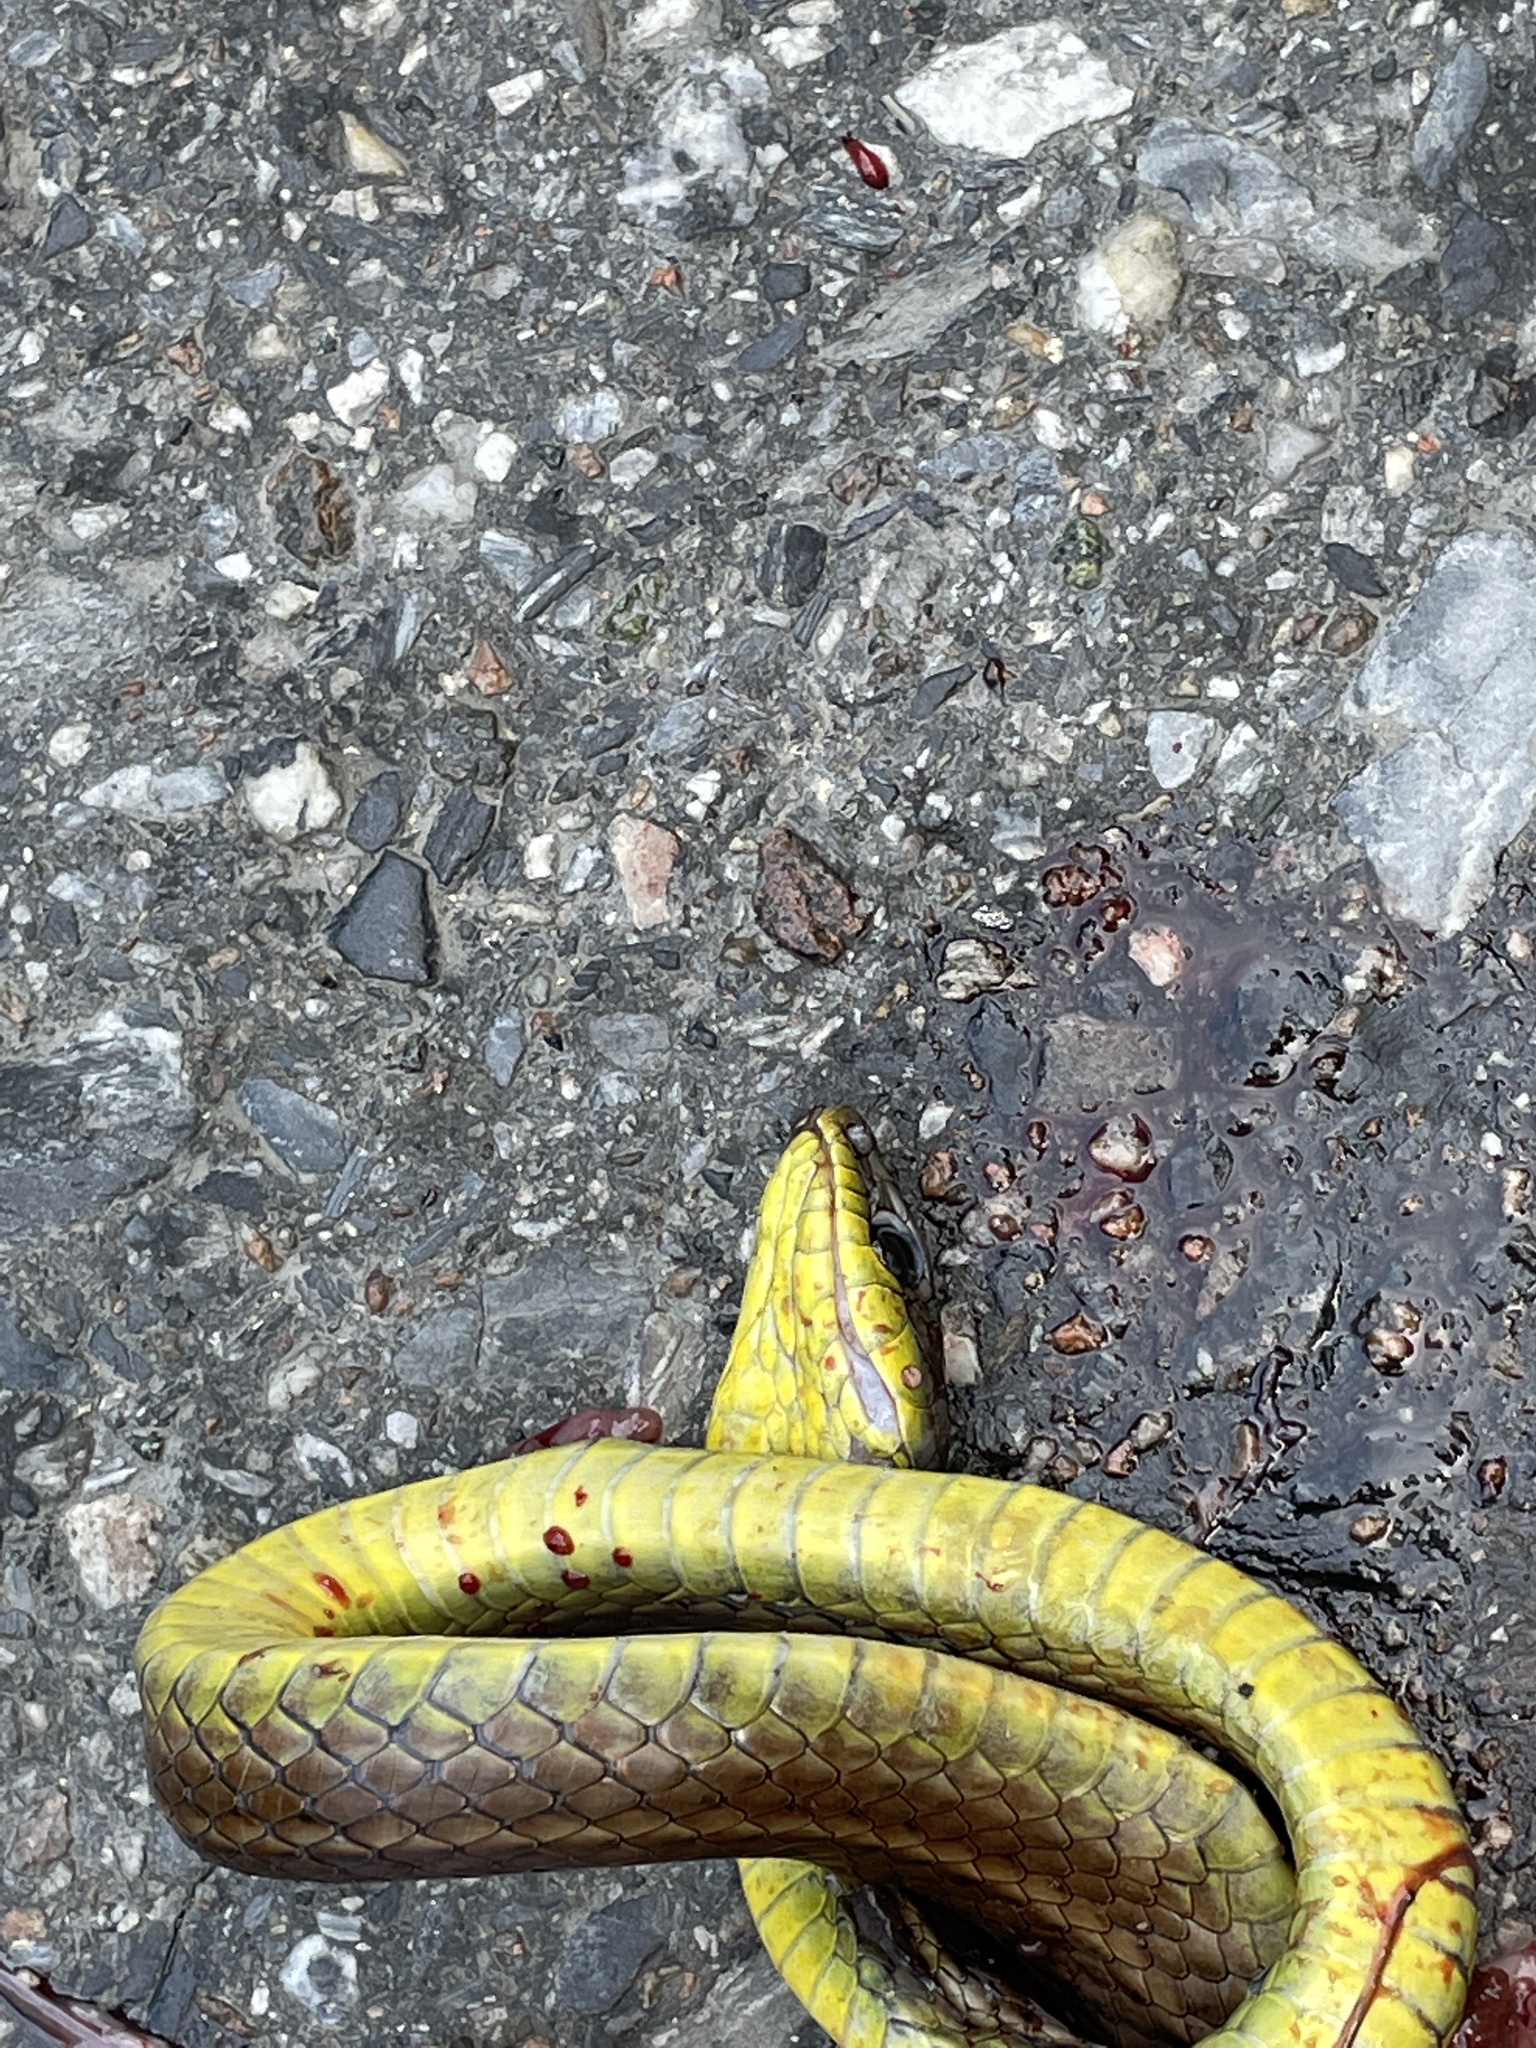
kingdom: Animalia
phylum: Chordata
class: Squamata
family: Colubridae
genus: Mastigodryas
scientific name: Mastigodryas boddaerti
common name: Boddaert's tropical racer
